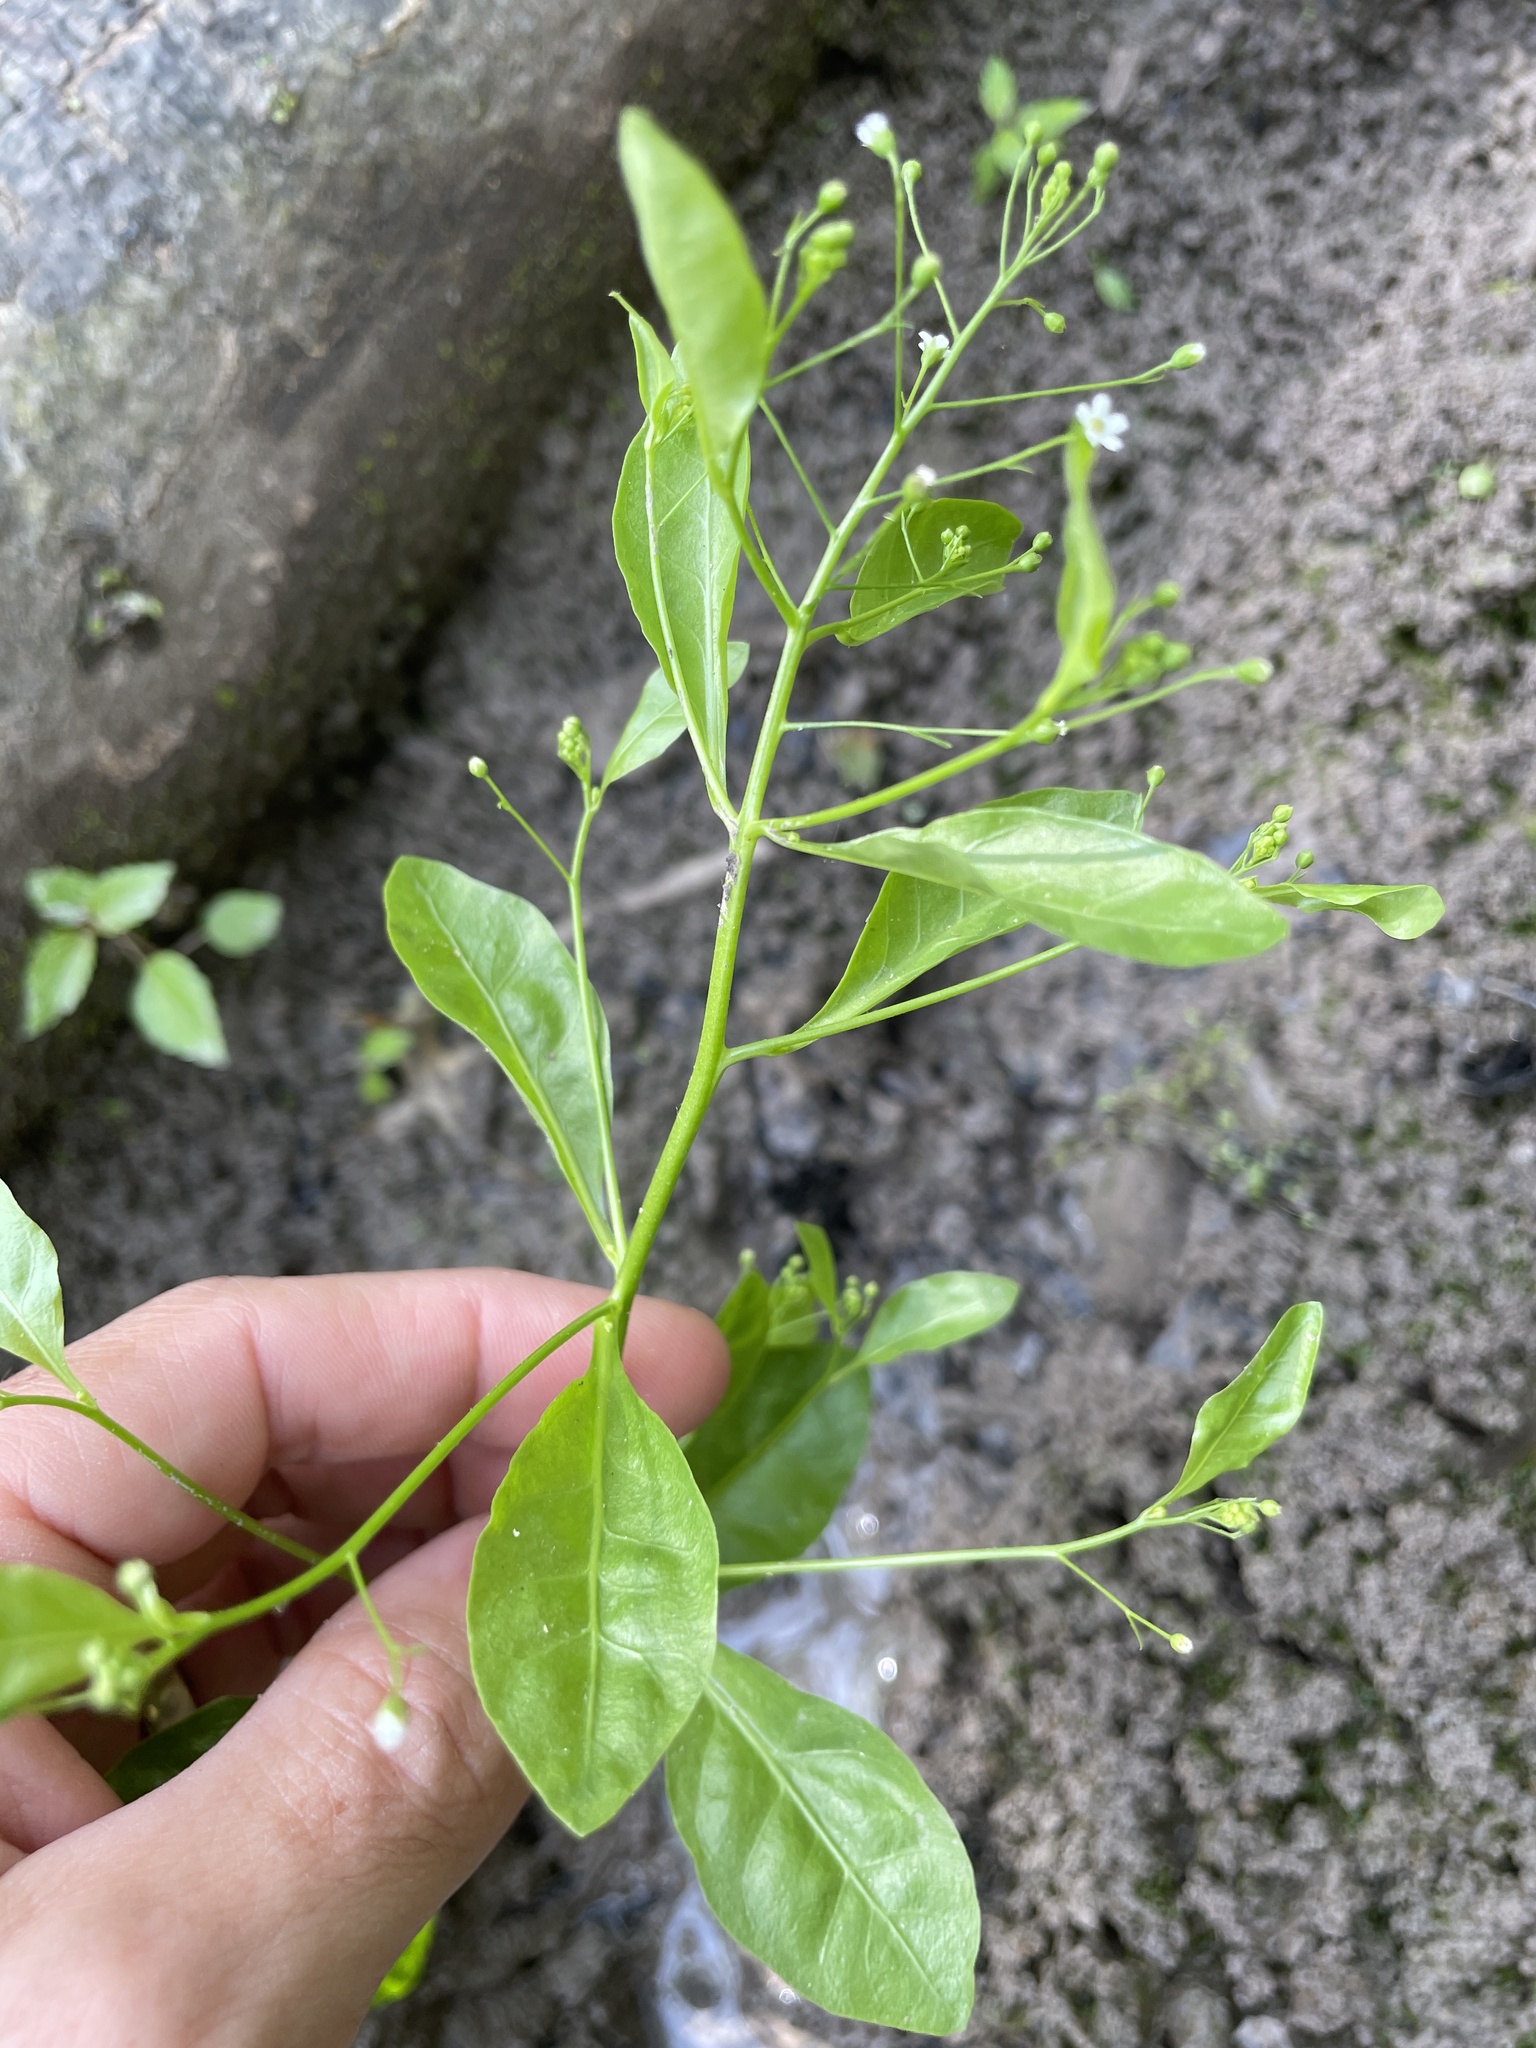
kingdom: Plantae
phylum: Tracheophyta
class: Magnoliopsida
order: Ericales
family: Primulaceae
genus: Samolus
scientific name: Samolus parviflorus
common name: False water pimpernel
